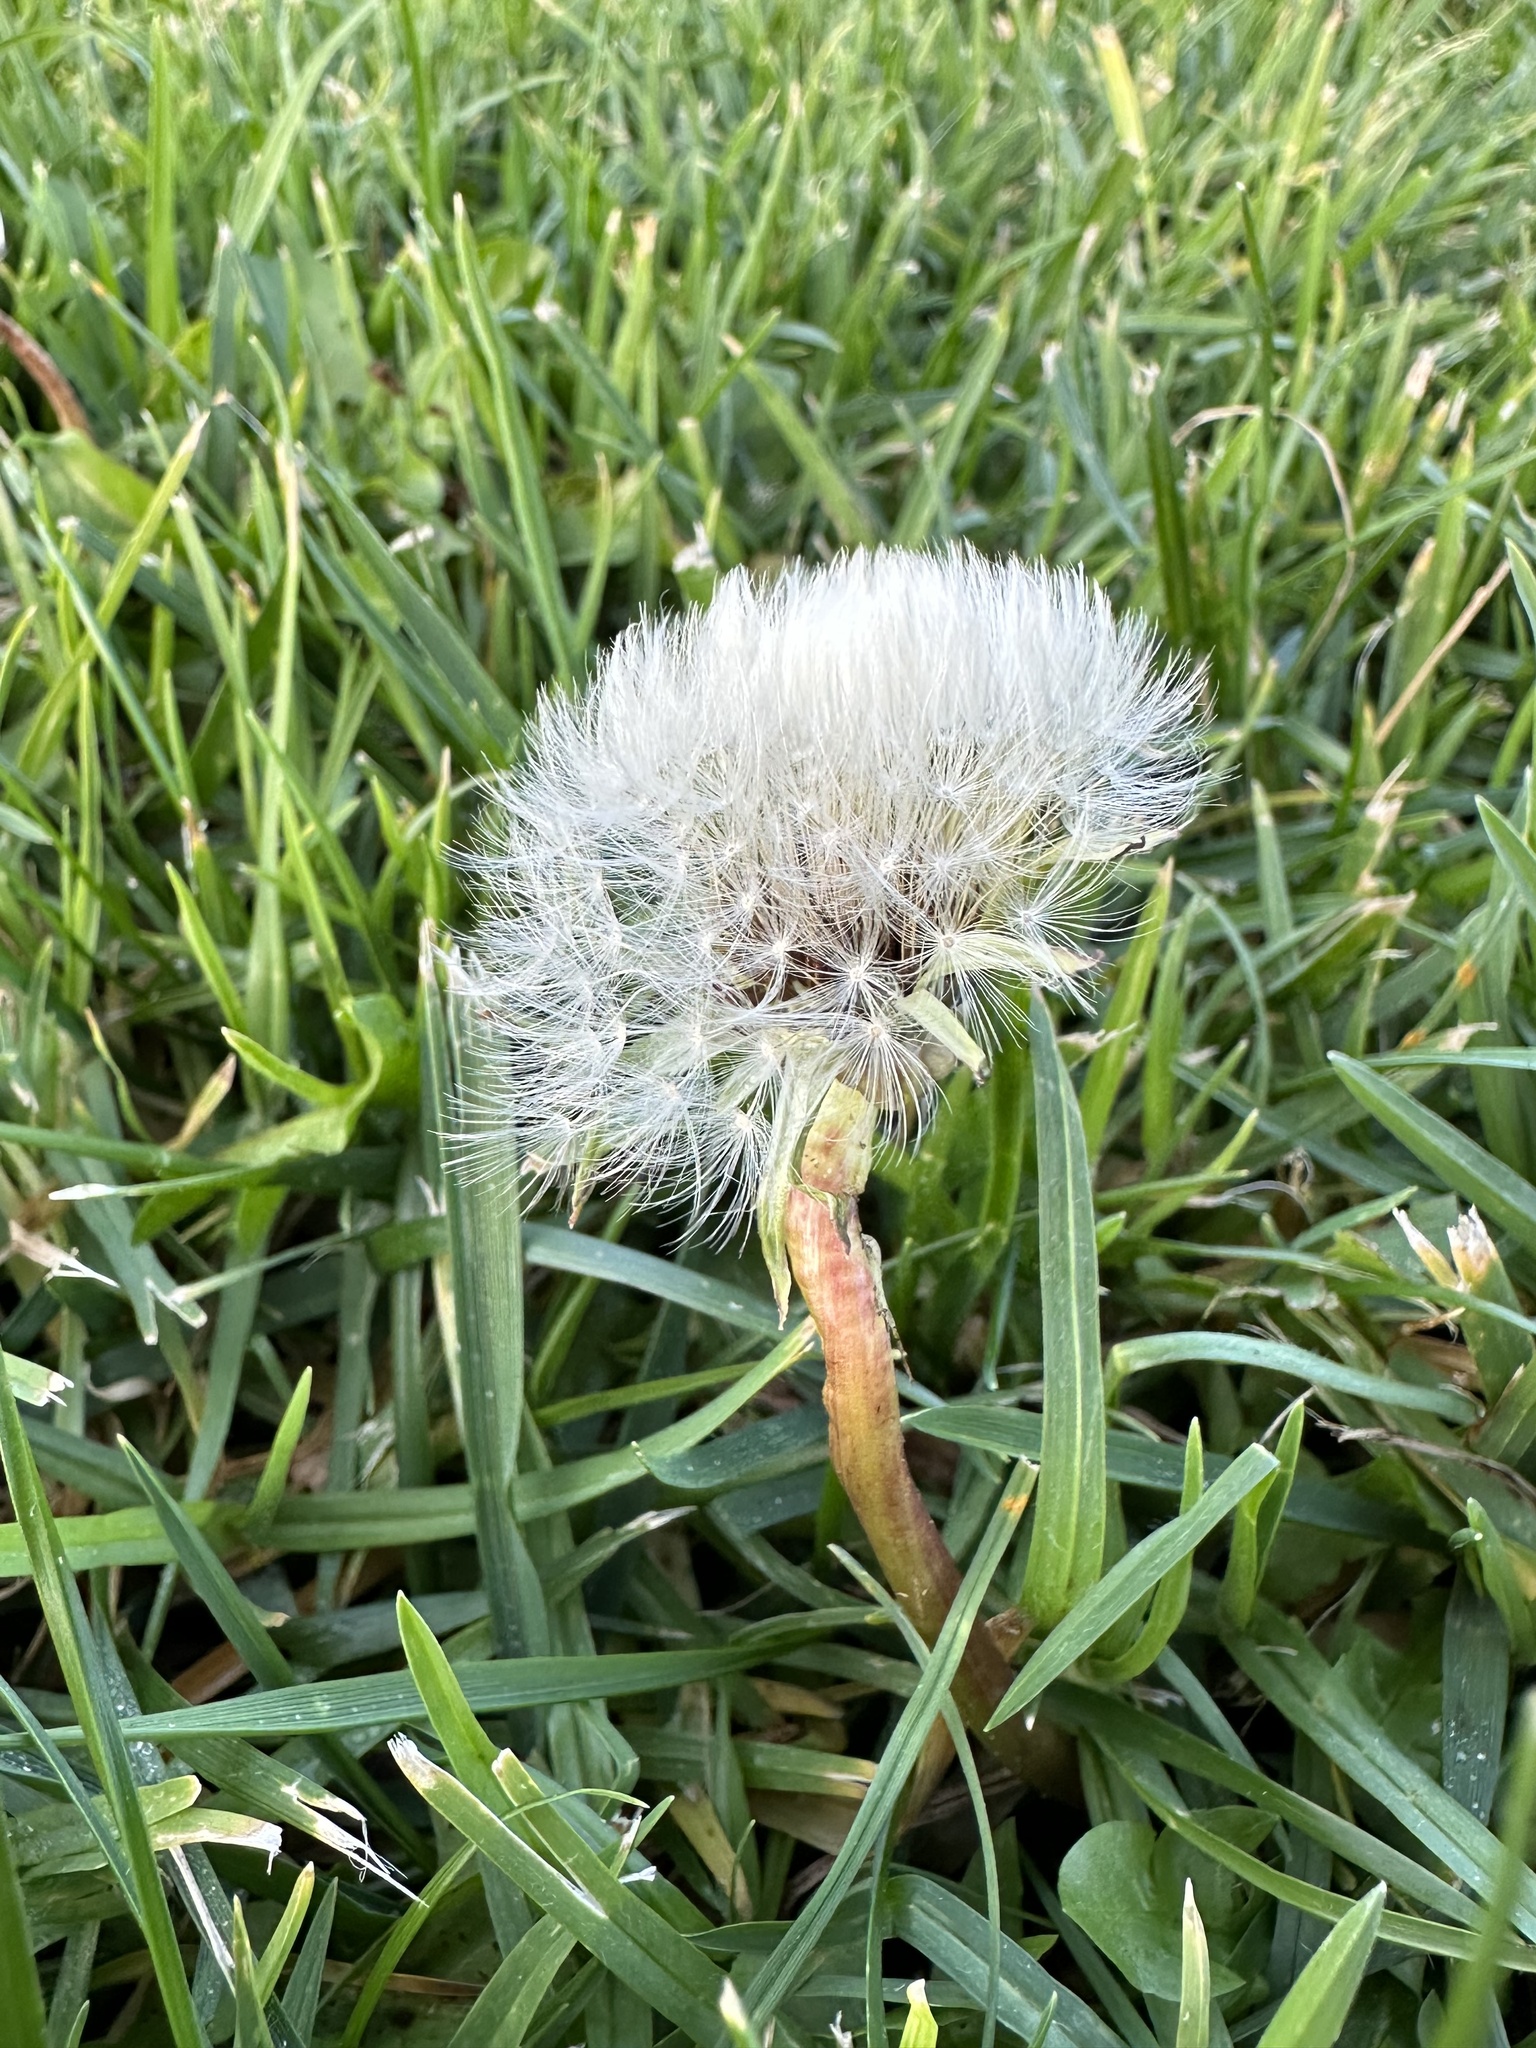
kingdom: Plantae
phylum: Tracheophyta
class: Magnoliopsida
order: Asterales
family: Asteraceae
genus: Taraxacum
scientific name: Taraxacum
